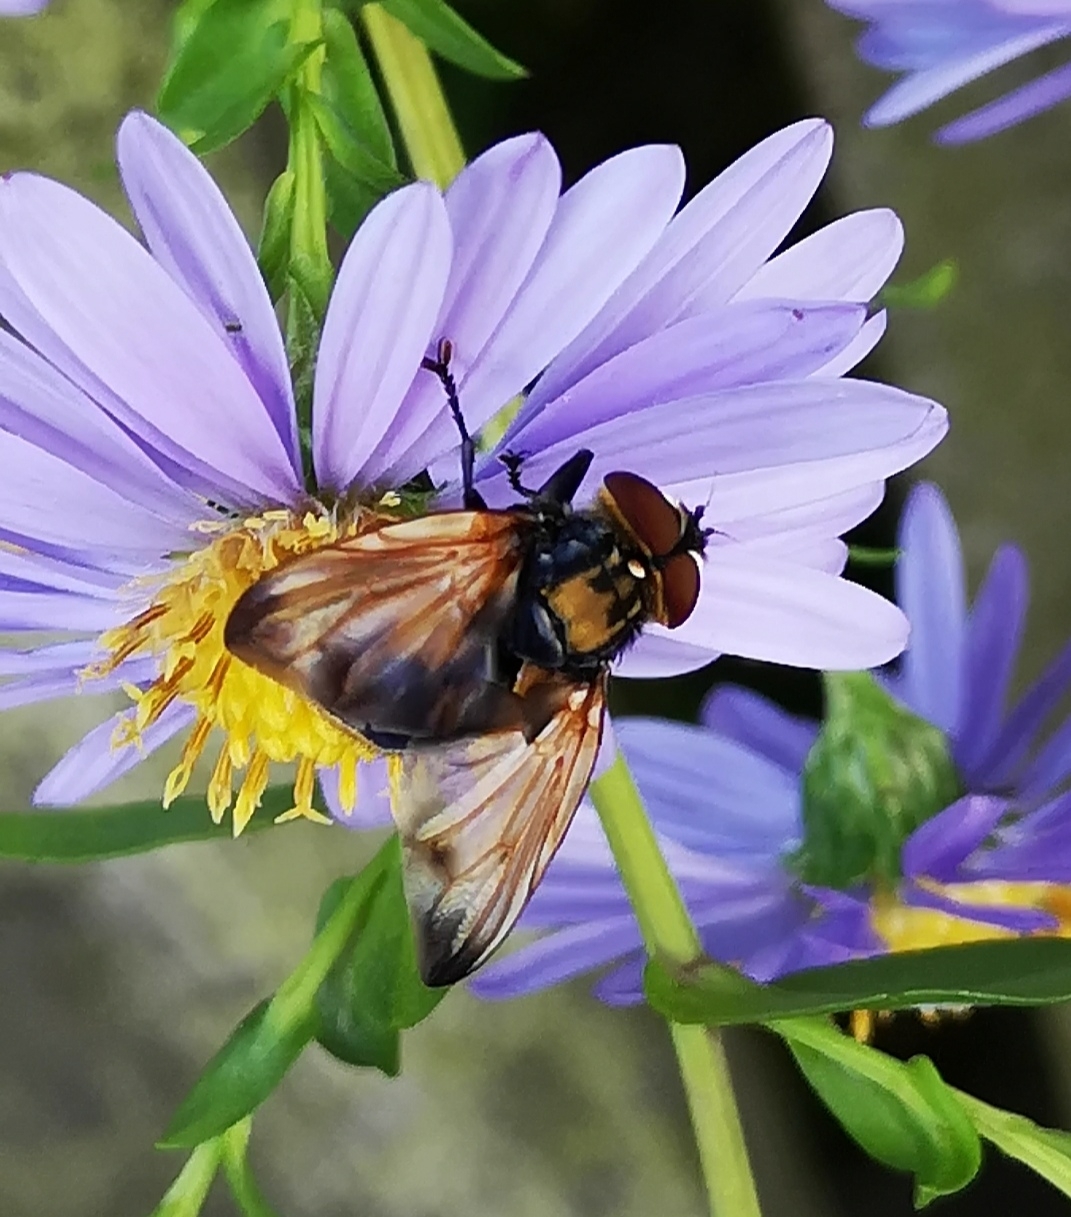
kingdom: Animalia
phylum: Arthropoda
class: Insecta
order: Diptera
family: Tachinidae
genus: Phasia
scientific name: Phasia aurigera
